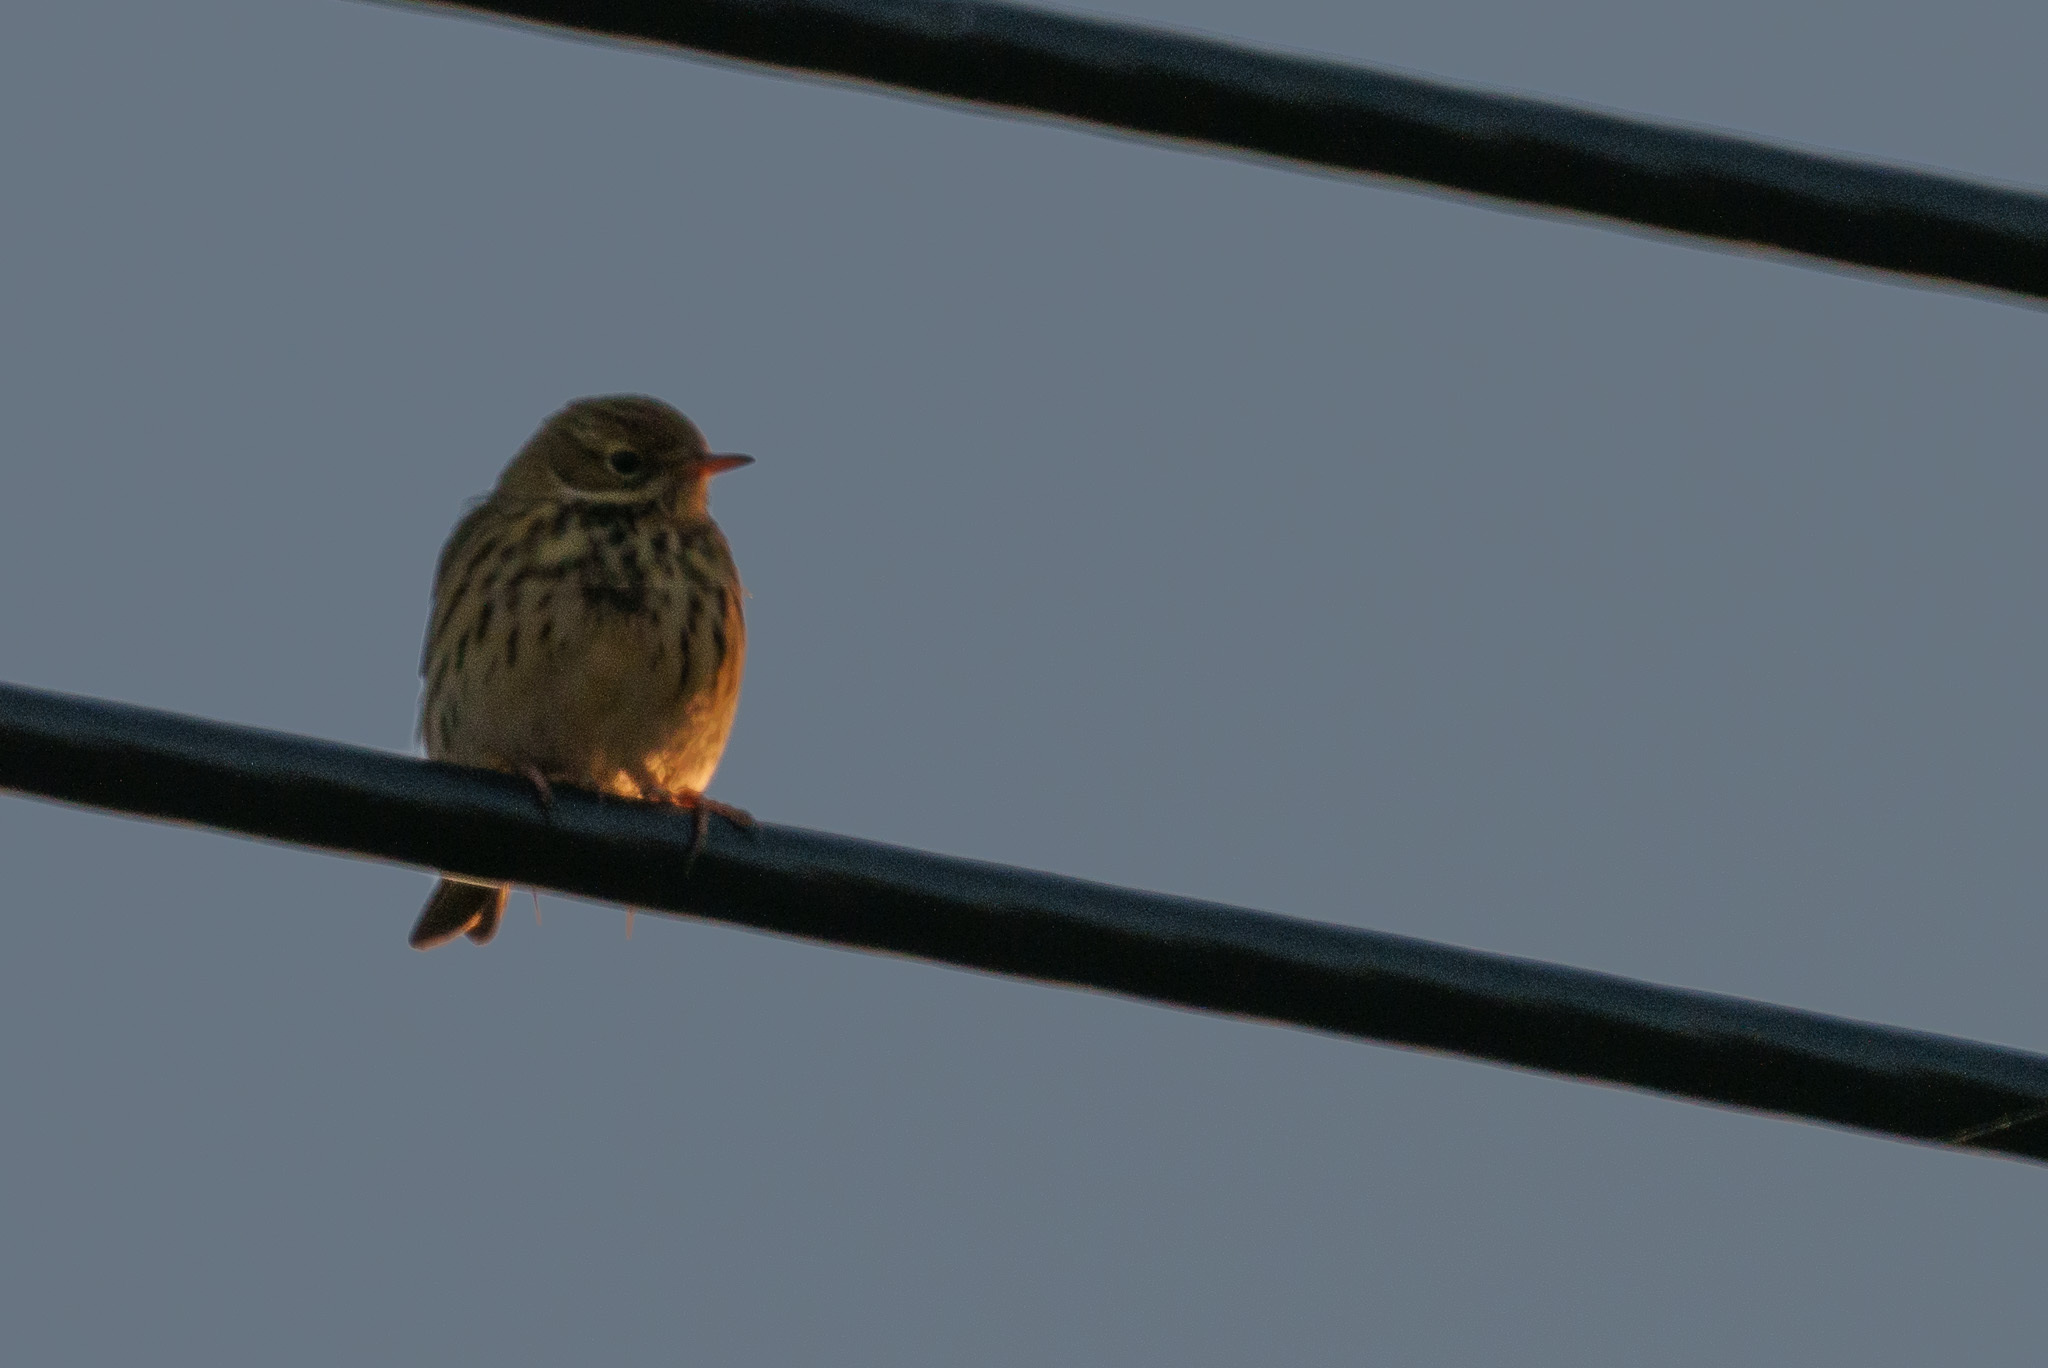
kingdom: Animalia
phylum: Chordata
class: Aves
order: Passeriformes
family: Motacillidae
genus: Anthus
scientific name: Anthus pratensis
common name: Meadow pipit
